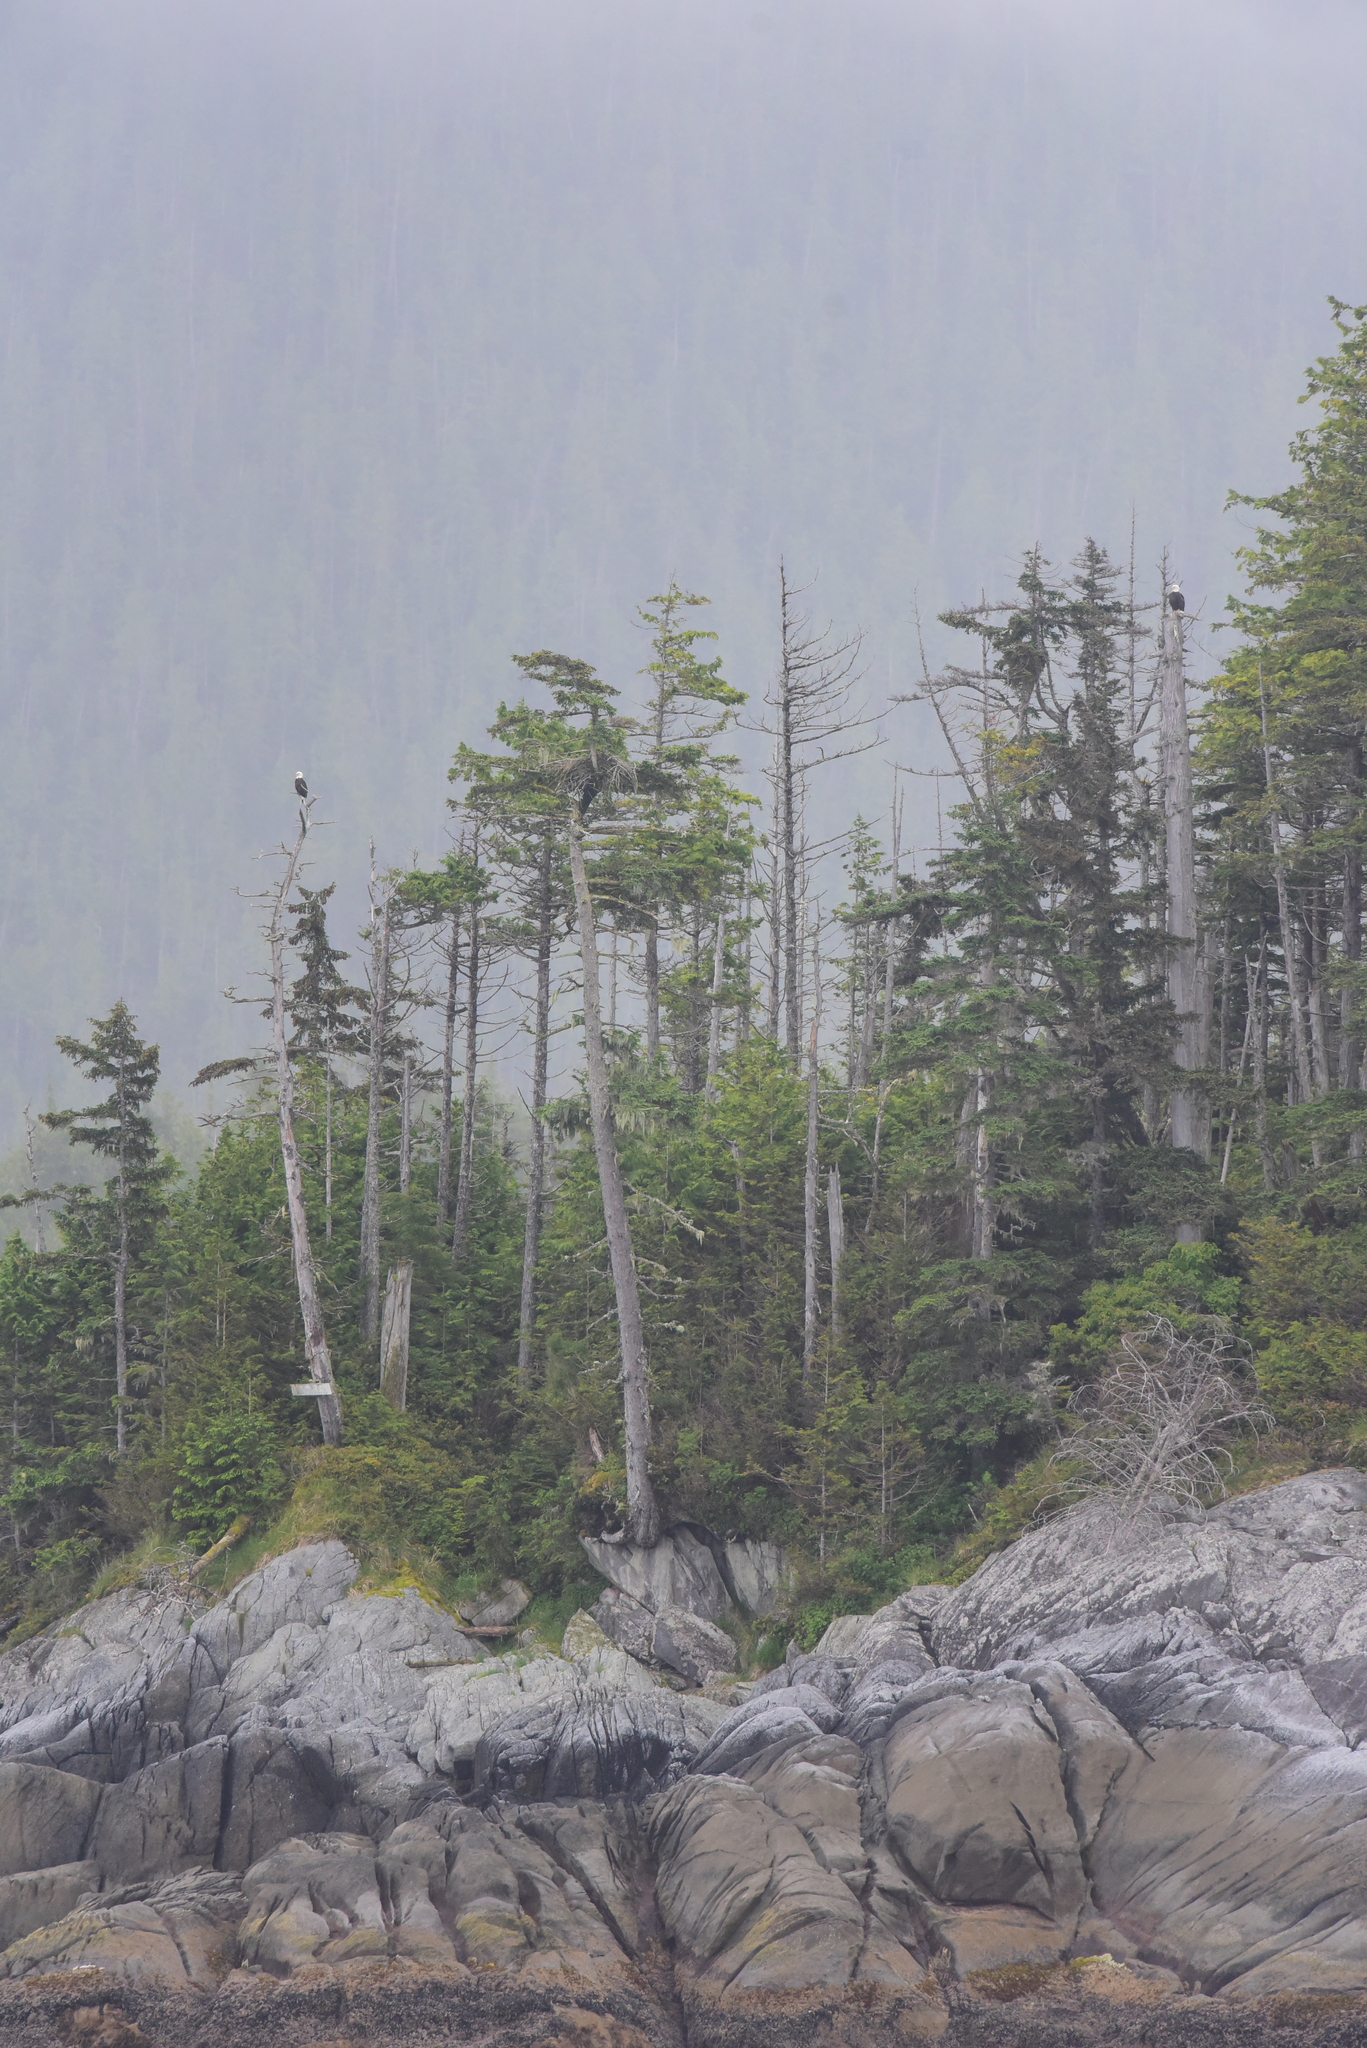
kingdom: Animalia
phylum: Chordata
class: Aves
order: Accipitriformes
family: Accipitridae
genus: Haliaeetus
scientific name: Haliaeetus leucocephalus
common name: Bald eagle
